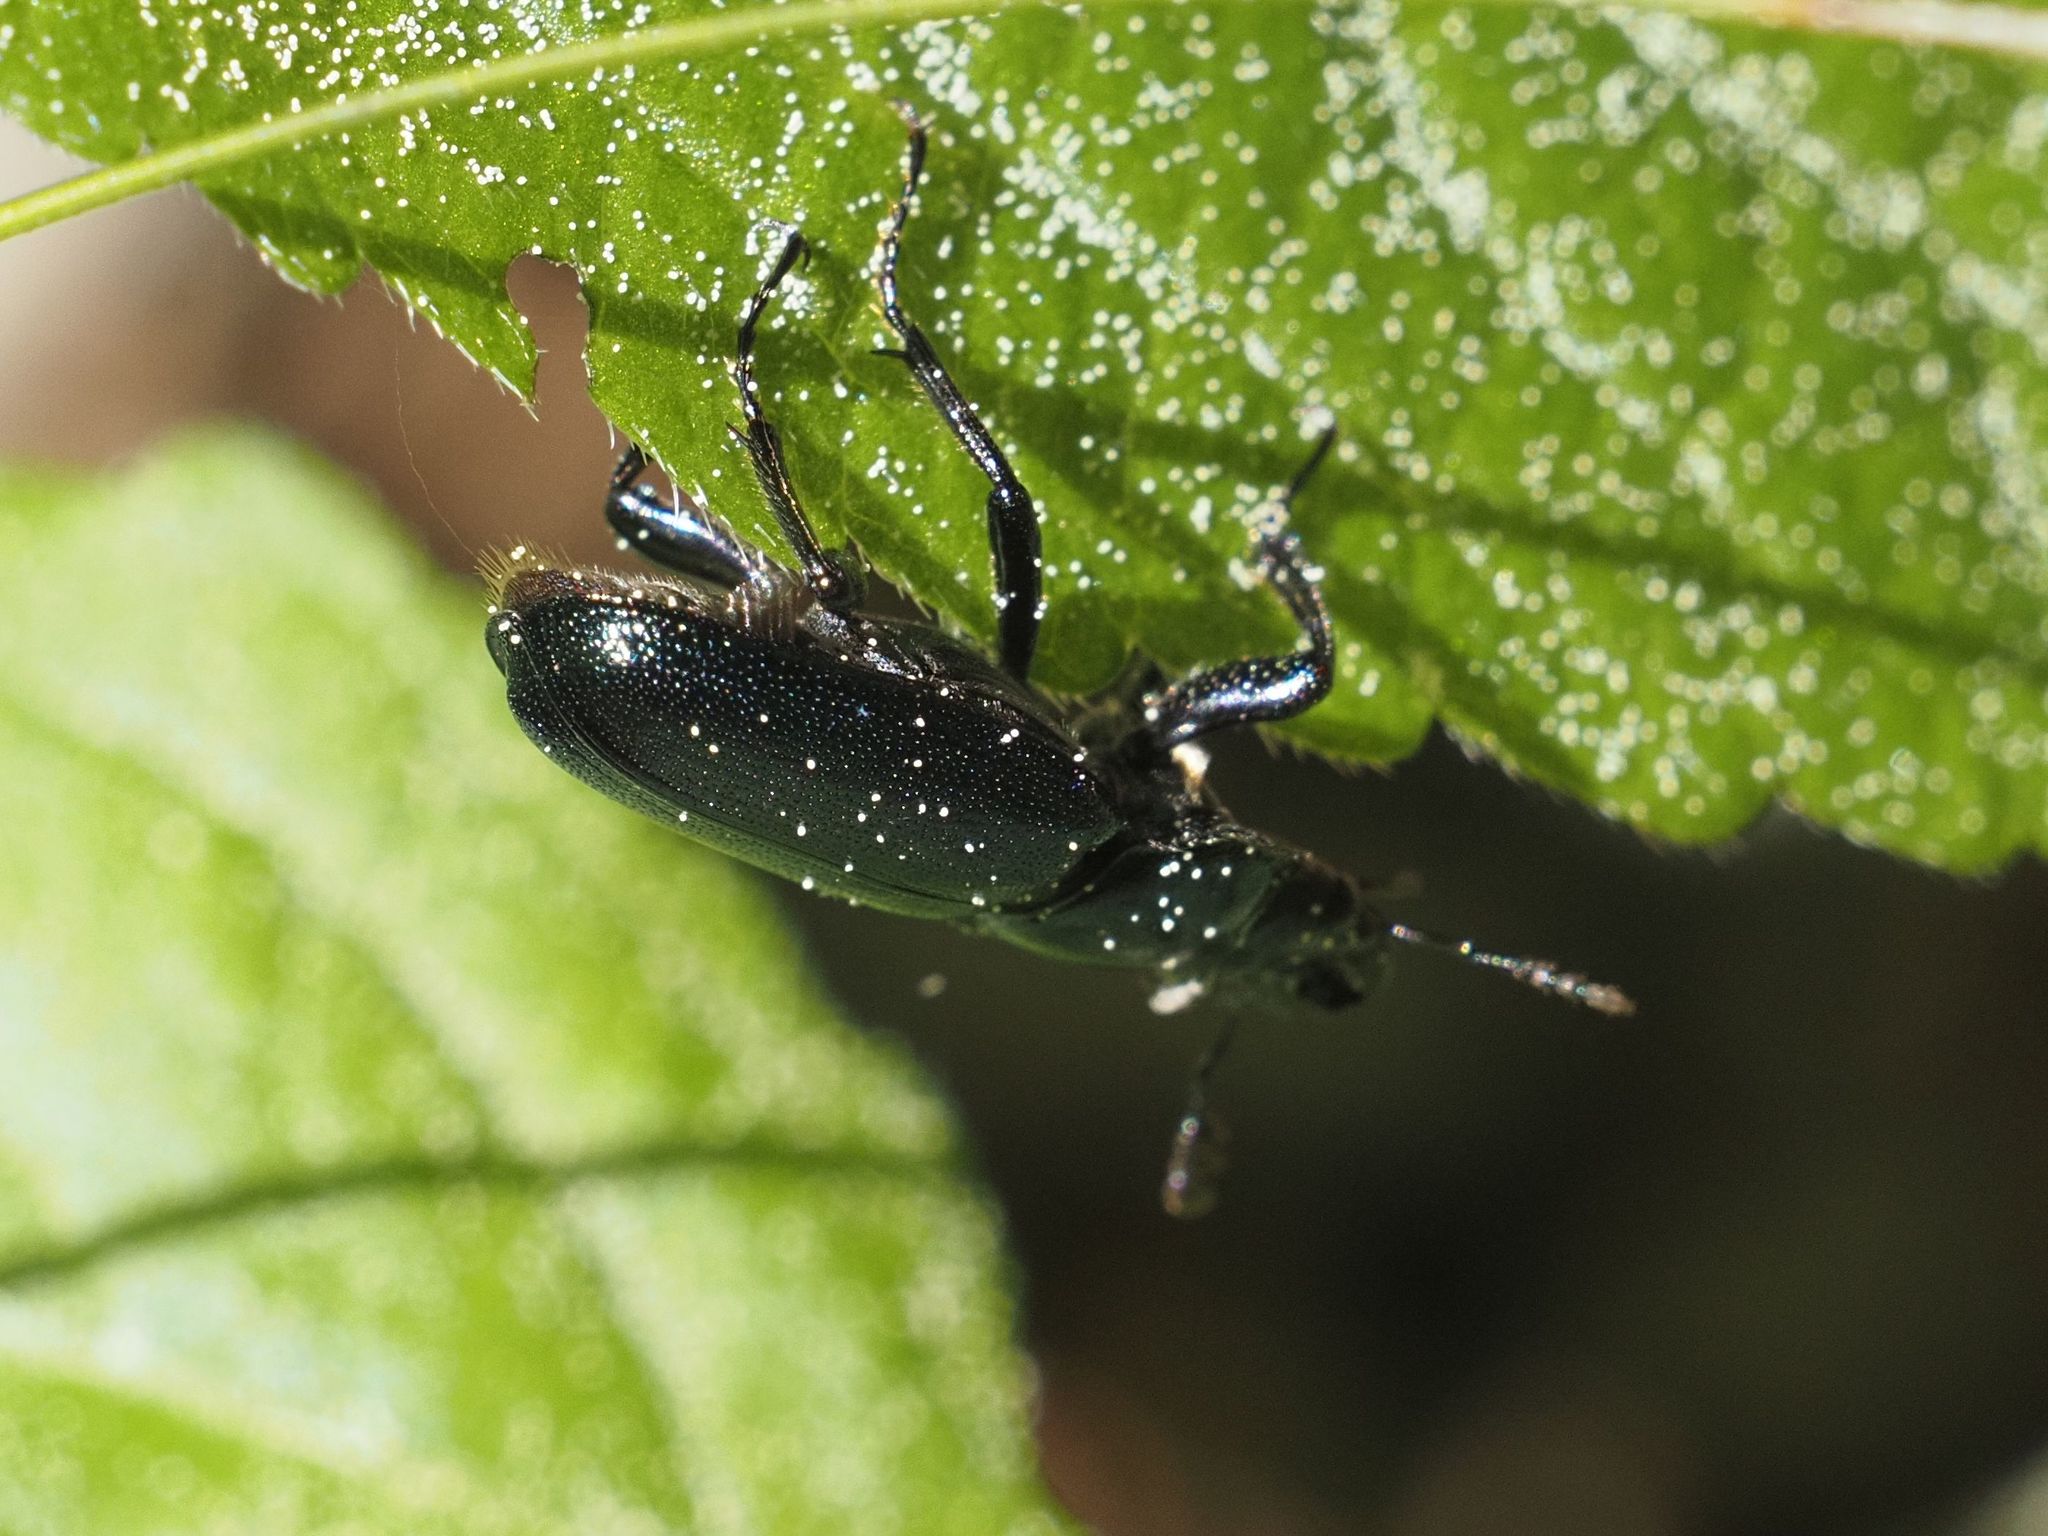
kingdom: Animalia
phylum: Arthropoda
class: Insecta
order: Coleoptera
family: Lucanidae
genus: Platycerus
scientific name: Platycerus caraboides
